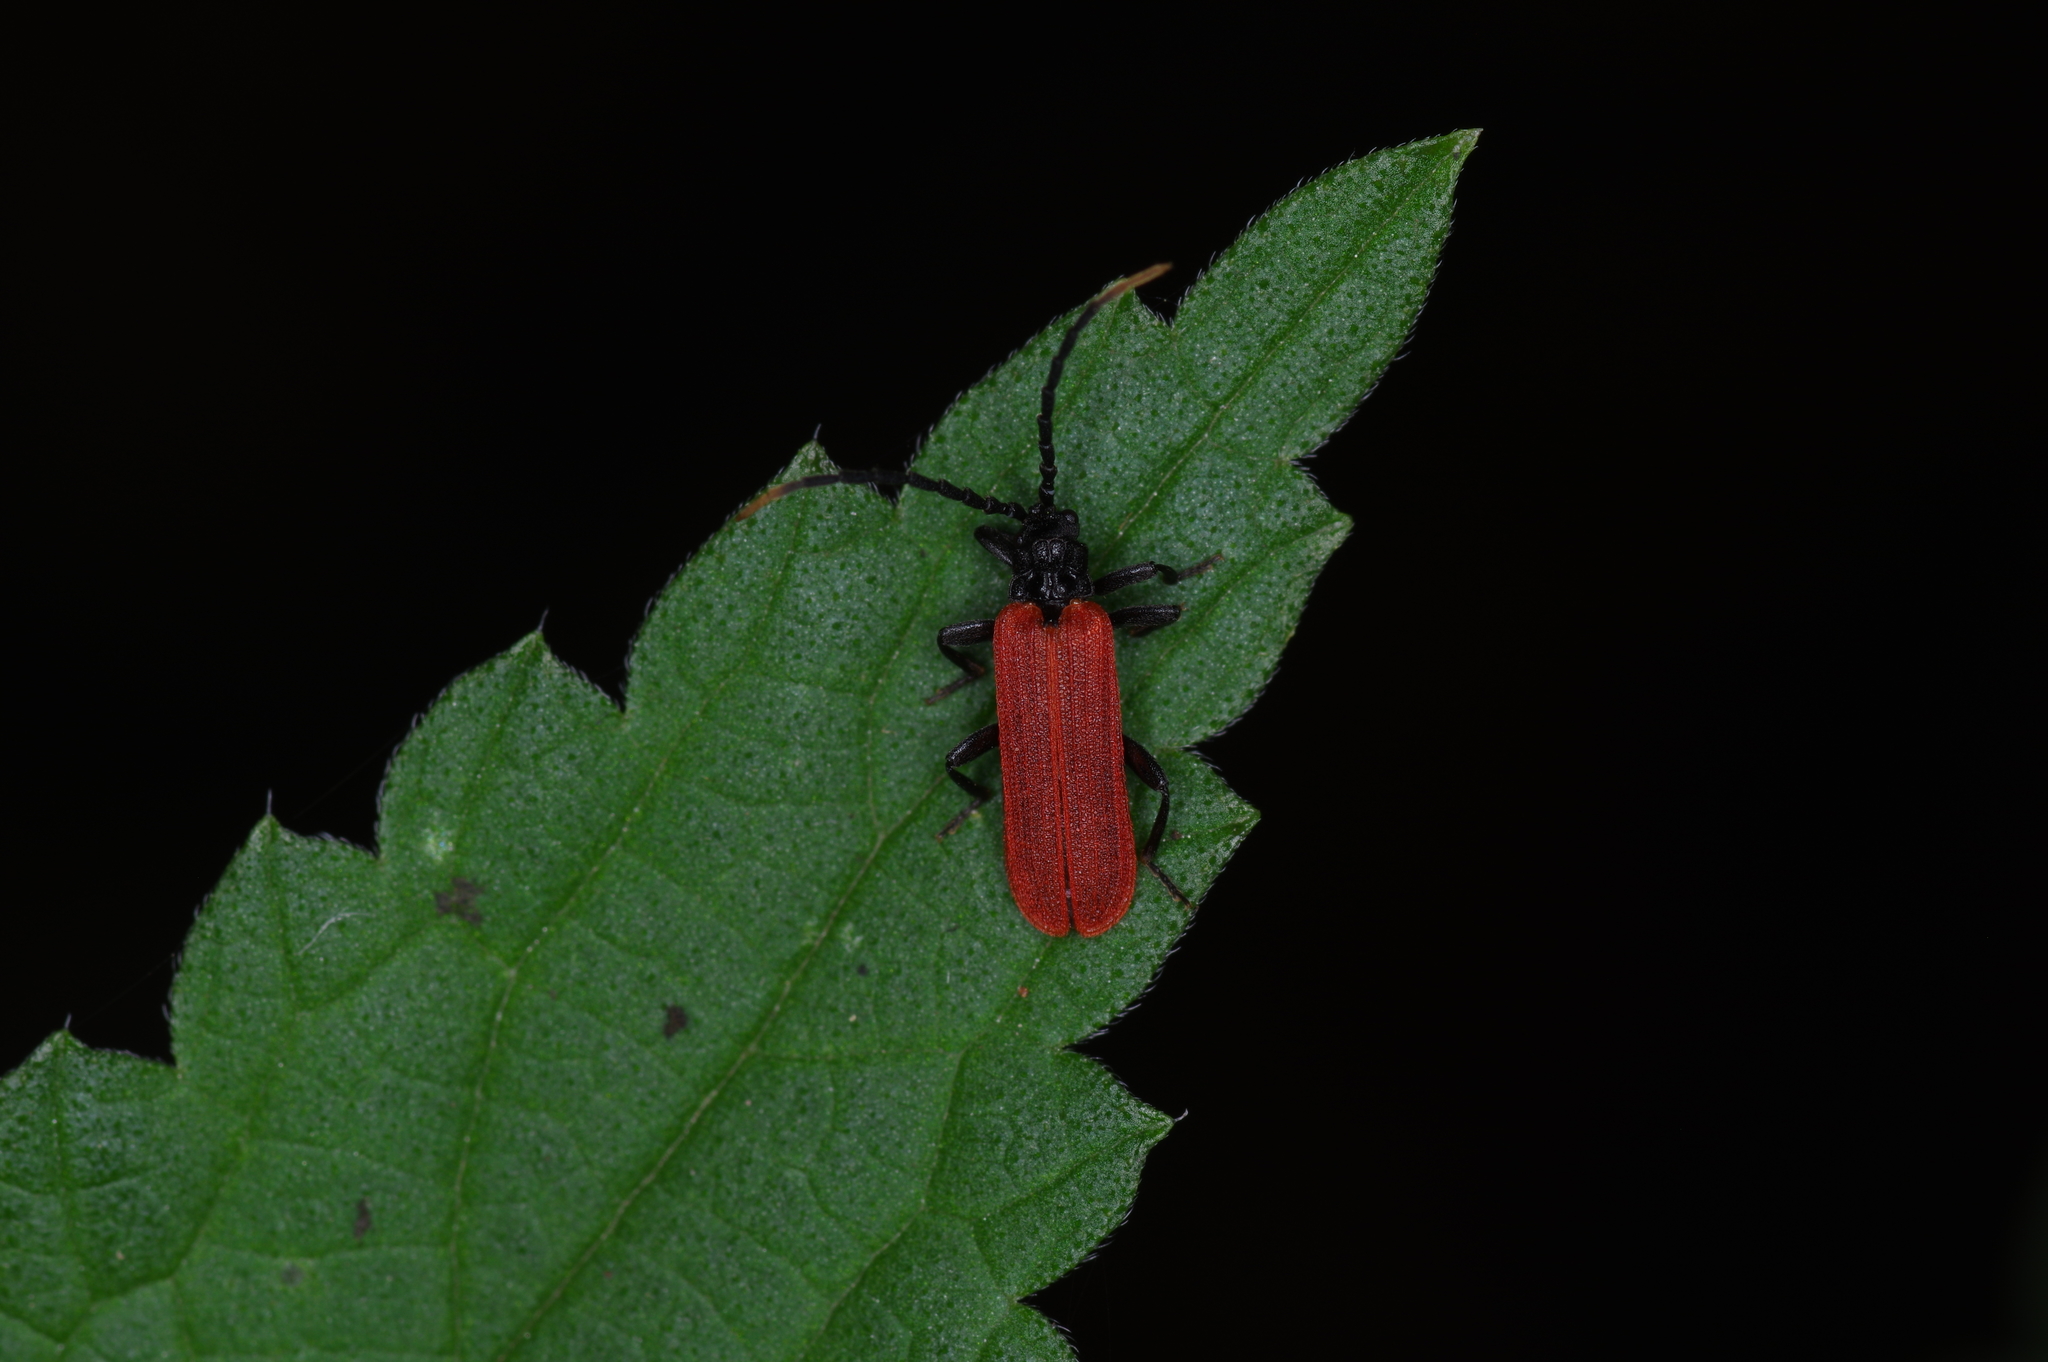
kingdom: Animalia
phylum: Arthropoda
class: Insecta
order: Coleoptera
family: Lycidae
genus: Platycis
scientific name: Platycis minutus
